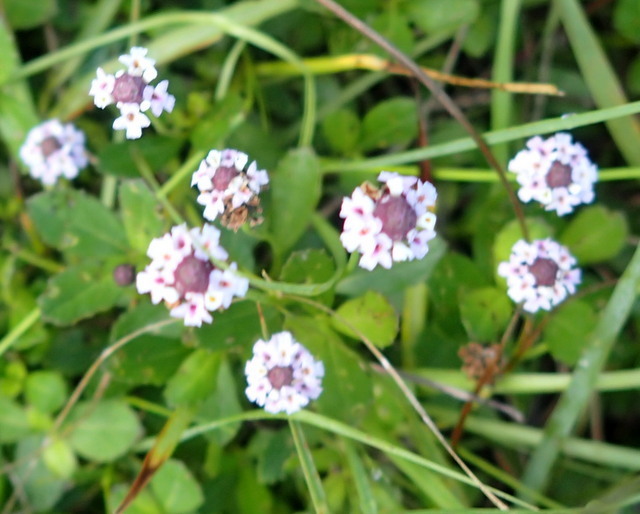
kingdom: Plantae
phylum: Tracheophyta
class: Magnoliopsida
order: Lamiales
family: Verbenaceae
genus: Phyla
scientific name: Phyla nodiflora
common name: Frogfruit
